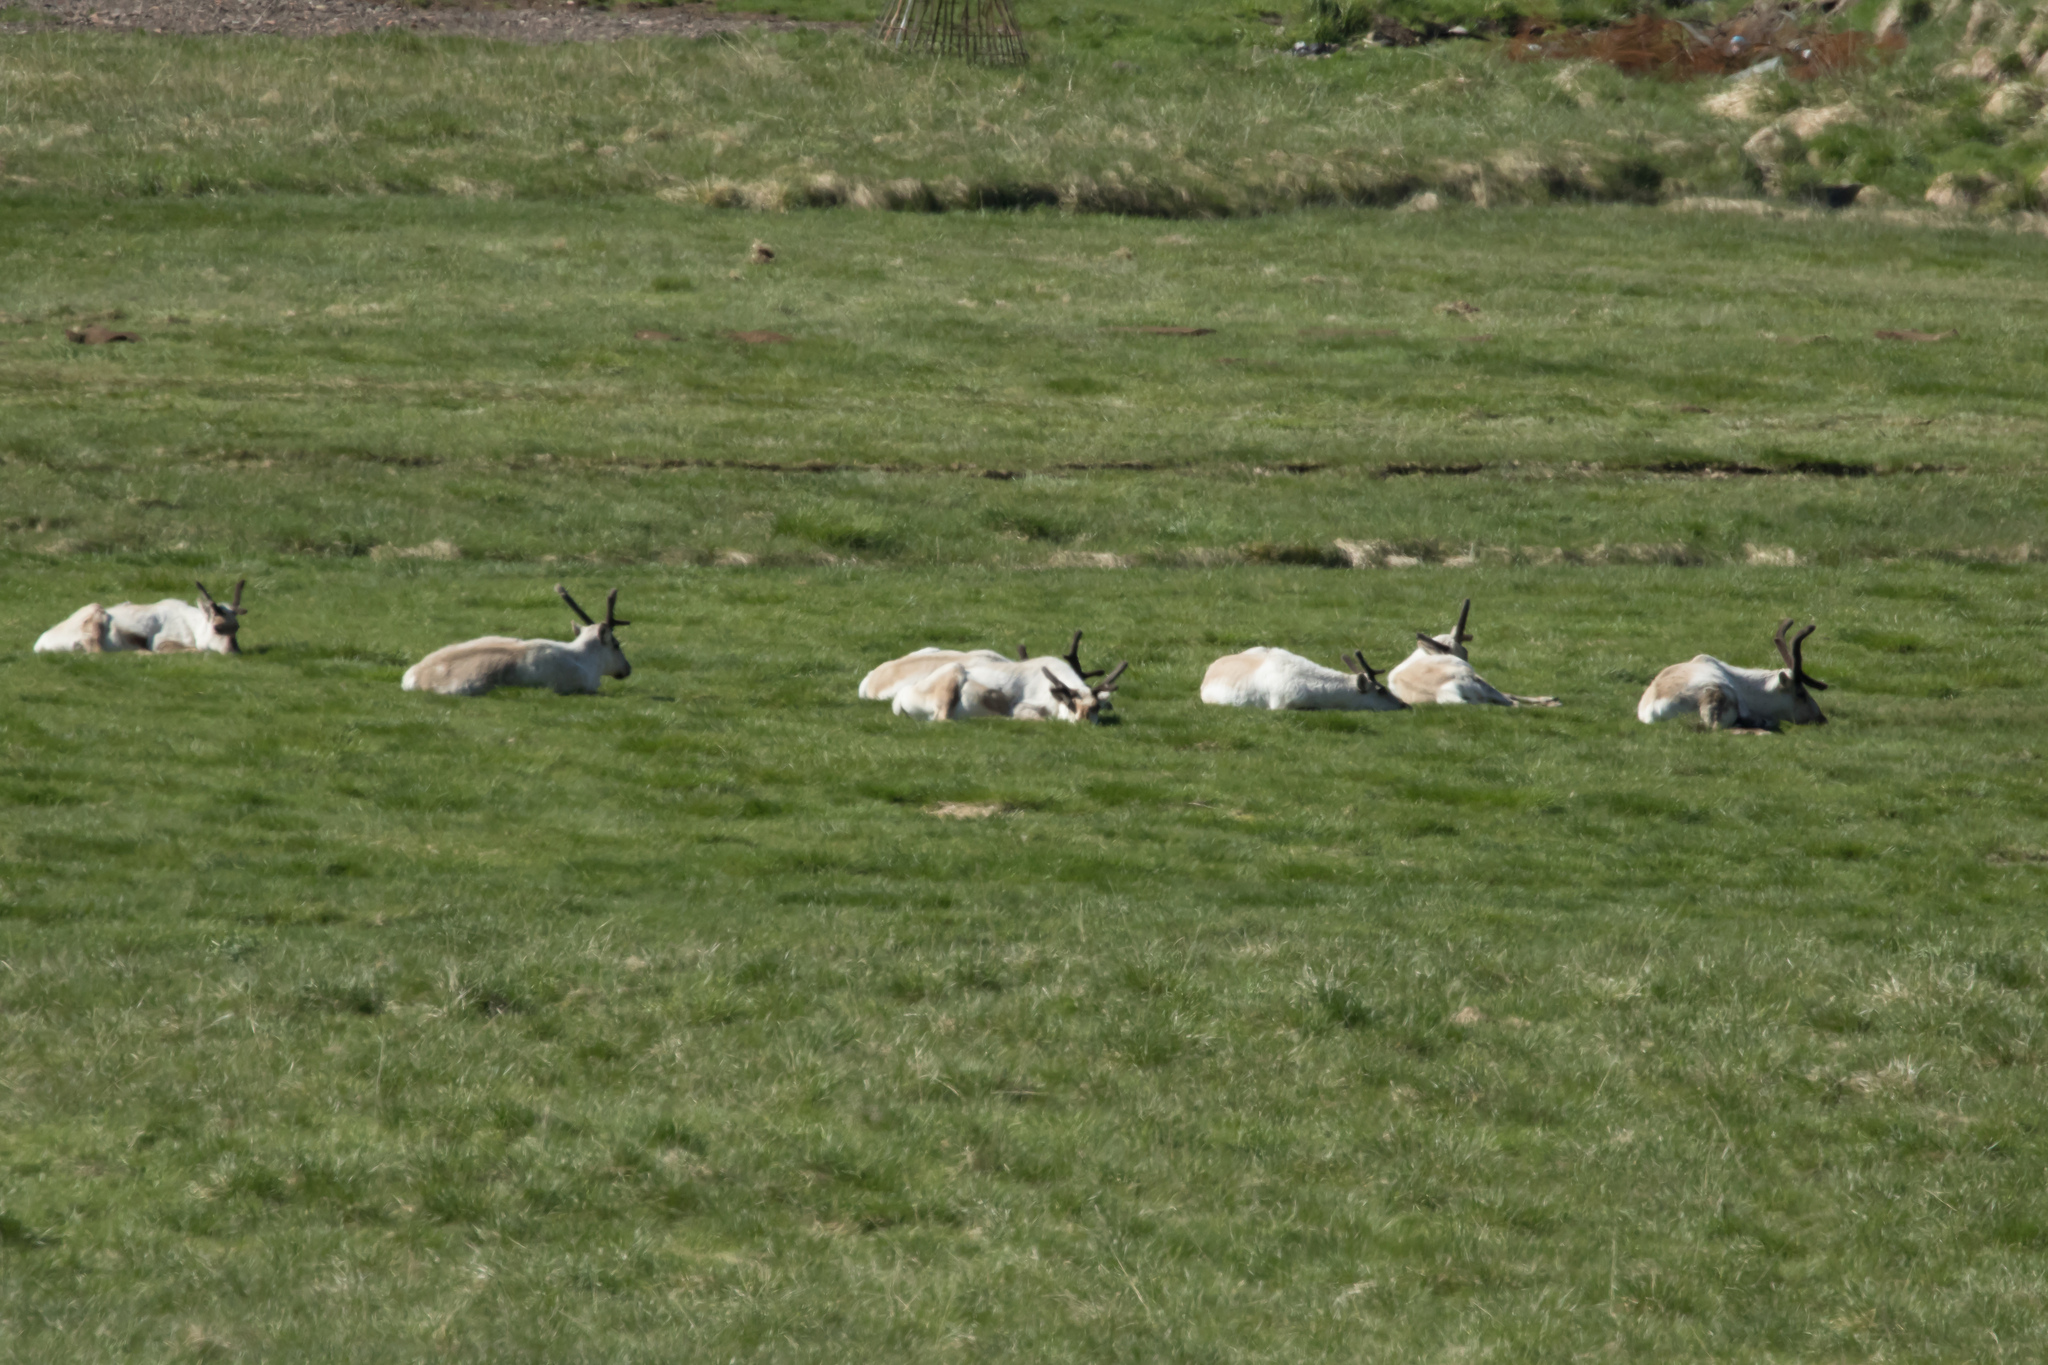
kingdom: Animalia
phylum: Chordata
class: Mammalia
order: Artiodactyla
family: Cervidae
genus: Rangifer
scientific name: Rangifer tarandus
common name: Reindeer
